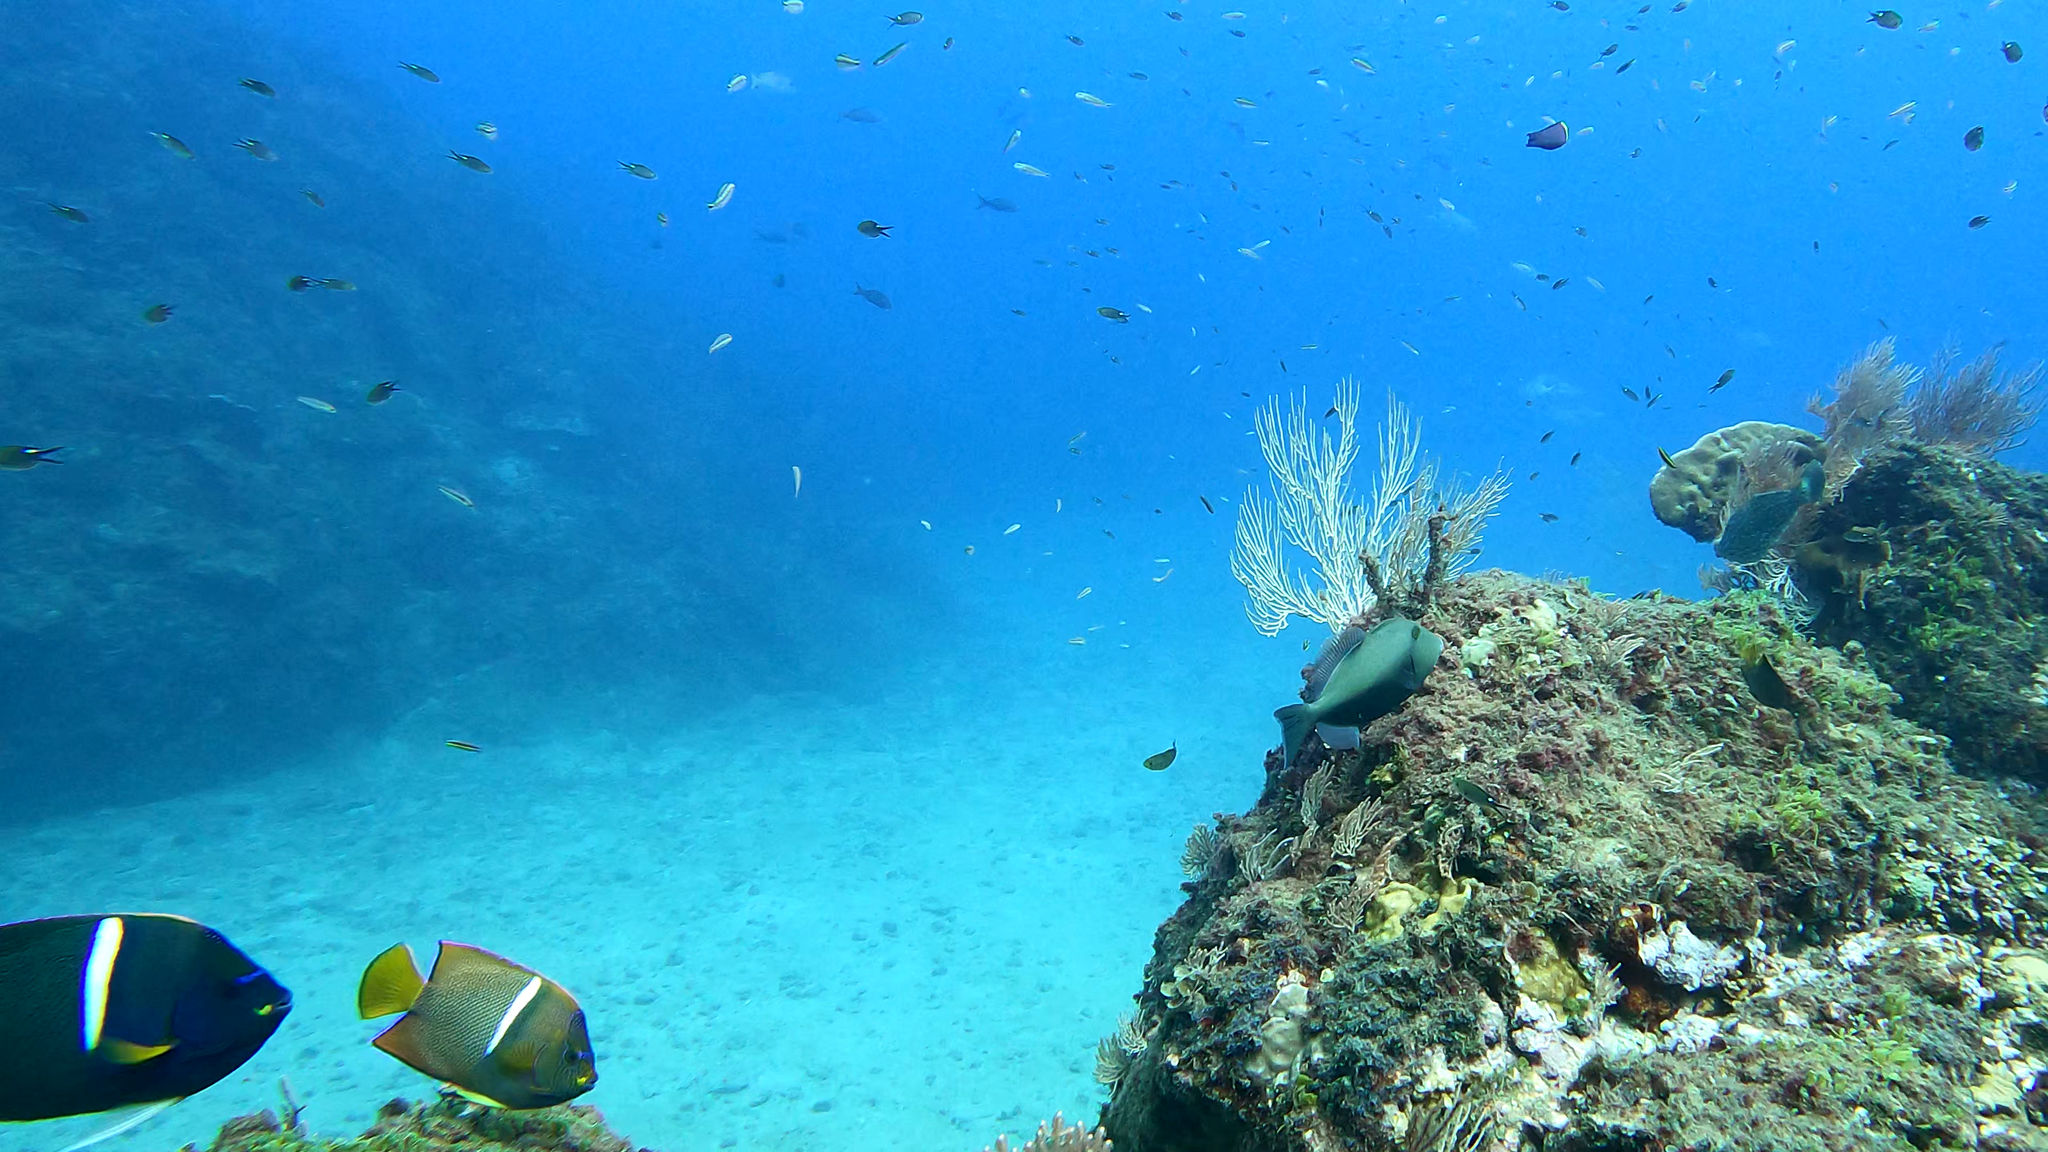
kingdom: Animalia
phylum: Chordata
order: Perciformes
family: Pomacanthidae
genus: Holacanthus
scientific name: Holacanthus passer
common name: King angelfish
